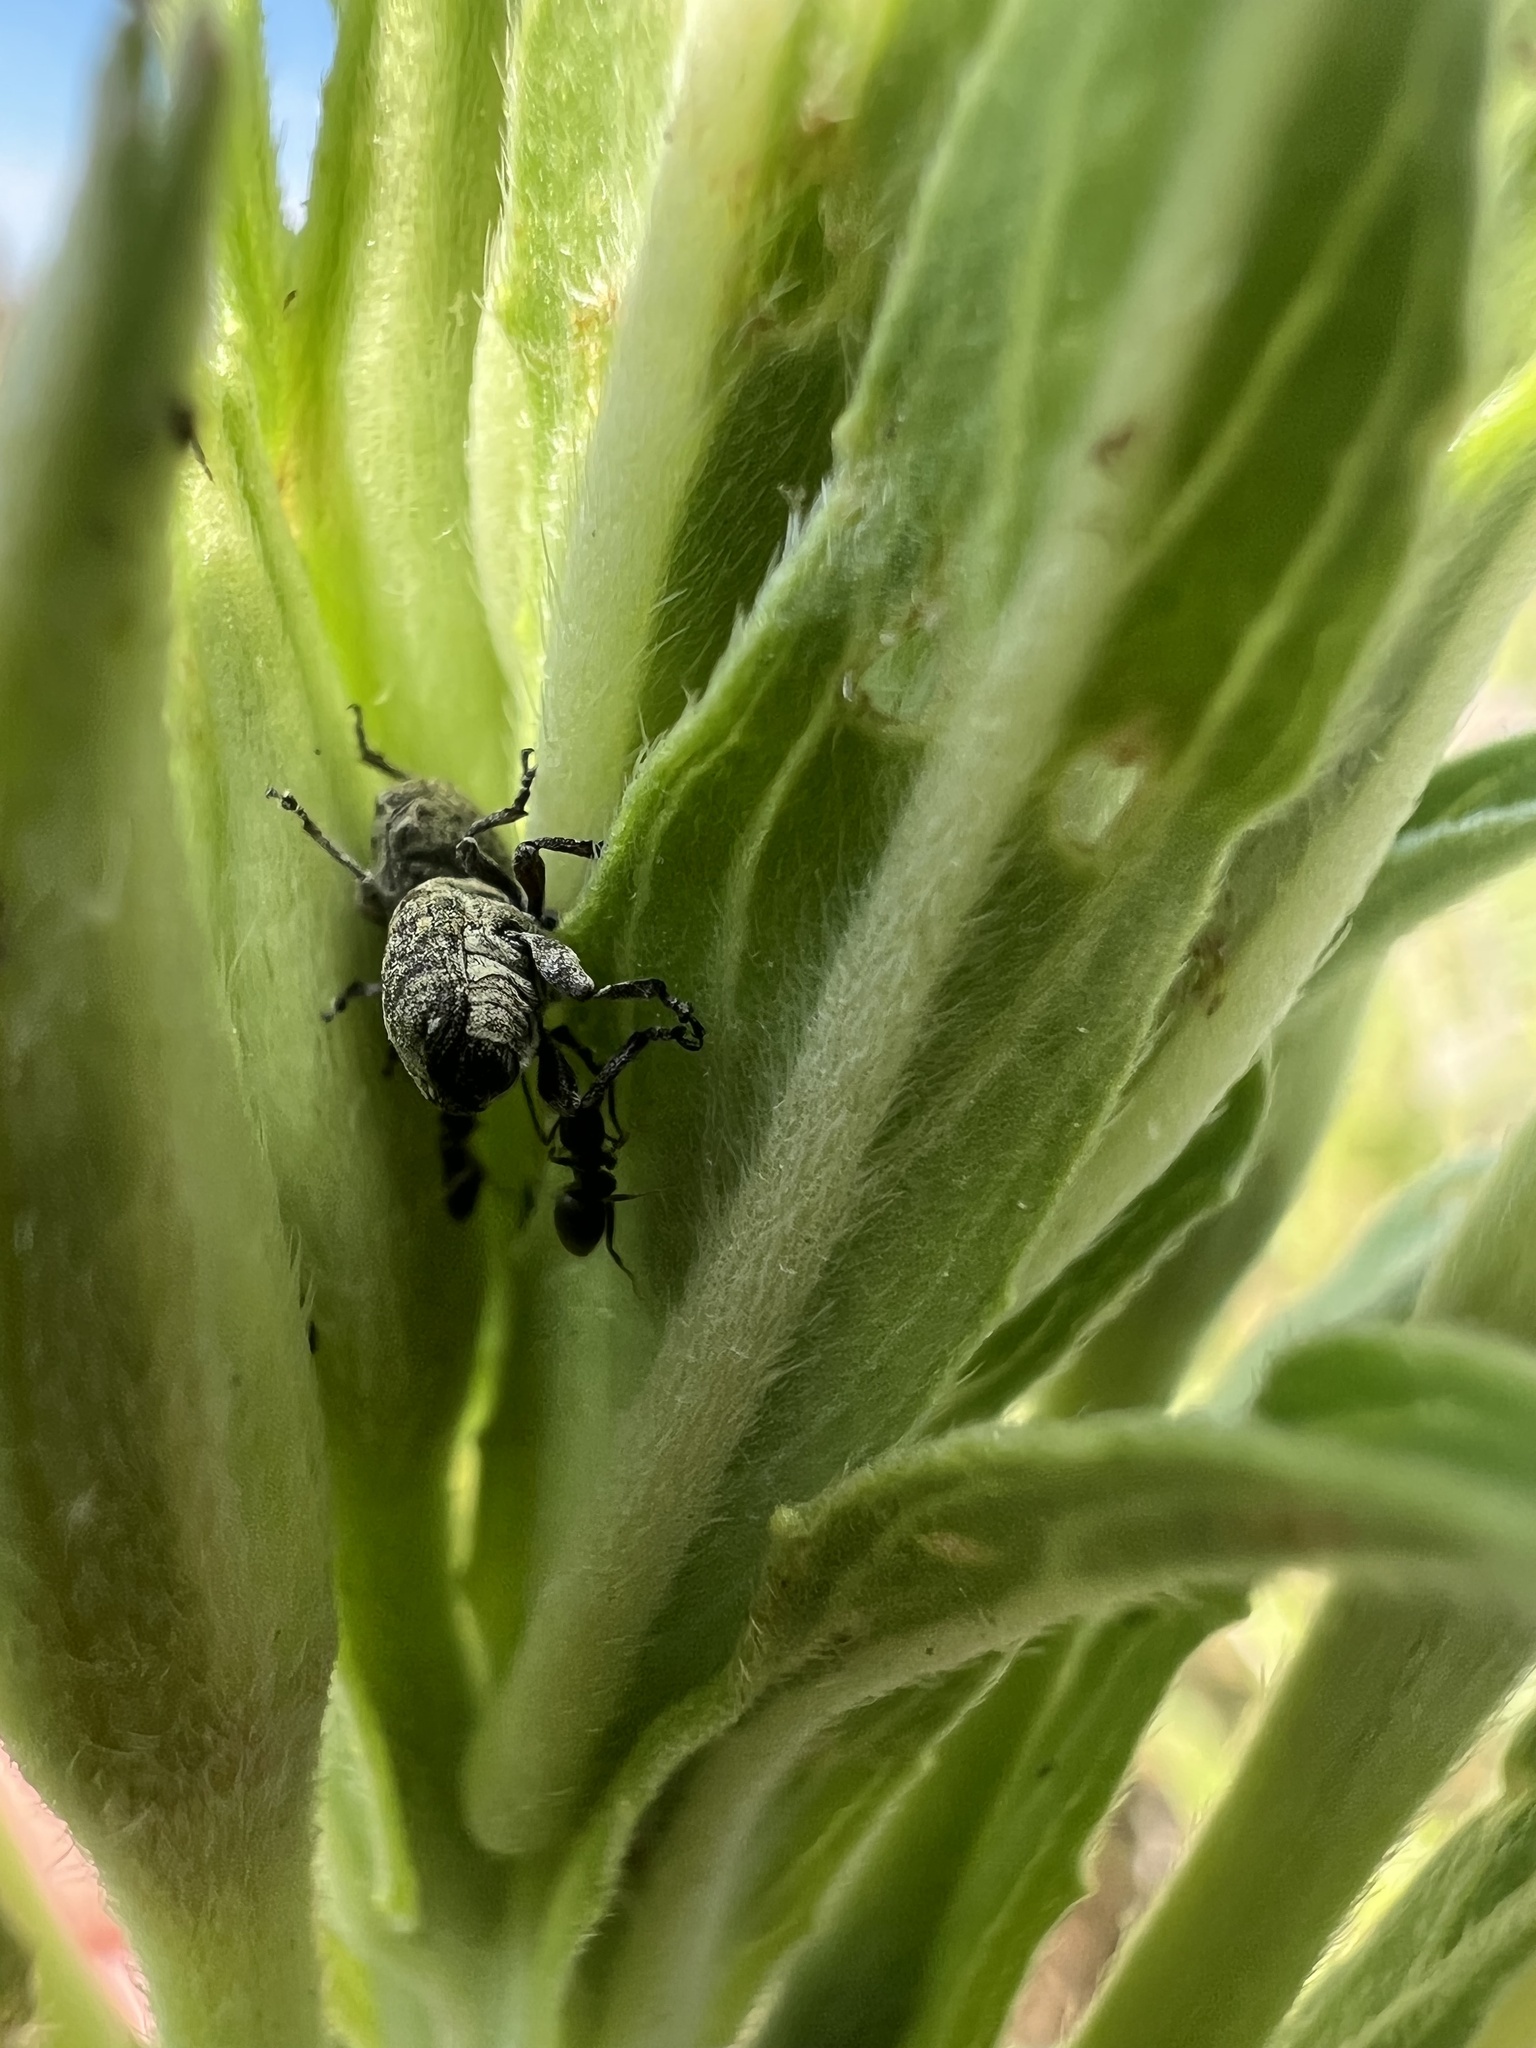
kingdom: Animalia
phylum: Arthropoda
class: Insecta
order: Coleoptera
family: Curculionidae
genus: Acanthoscelidius
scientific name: Acanthoscelidius acephalus
